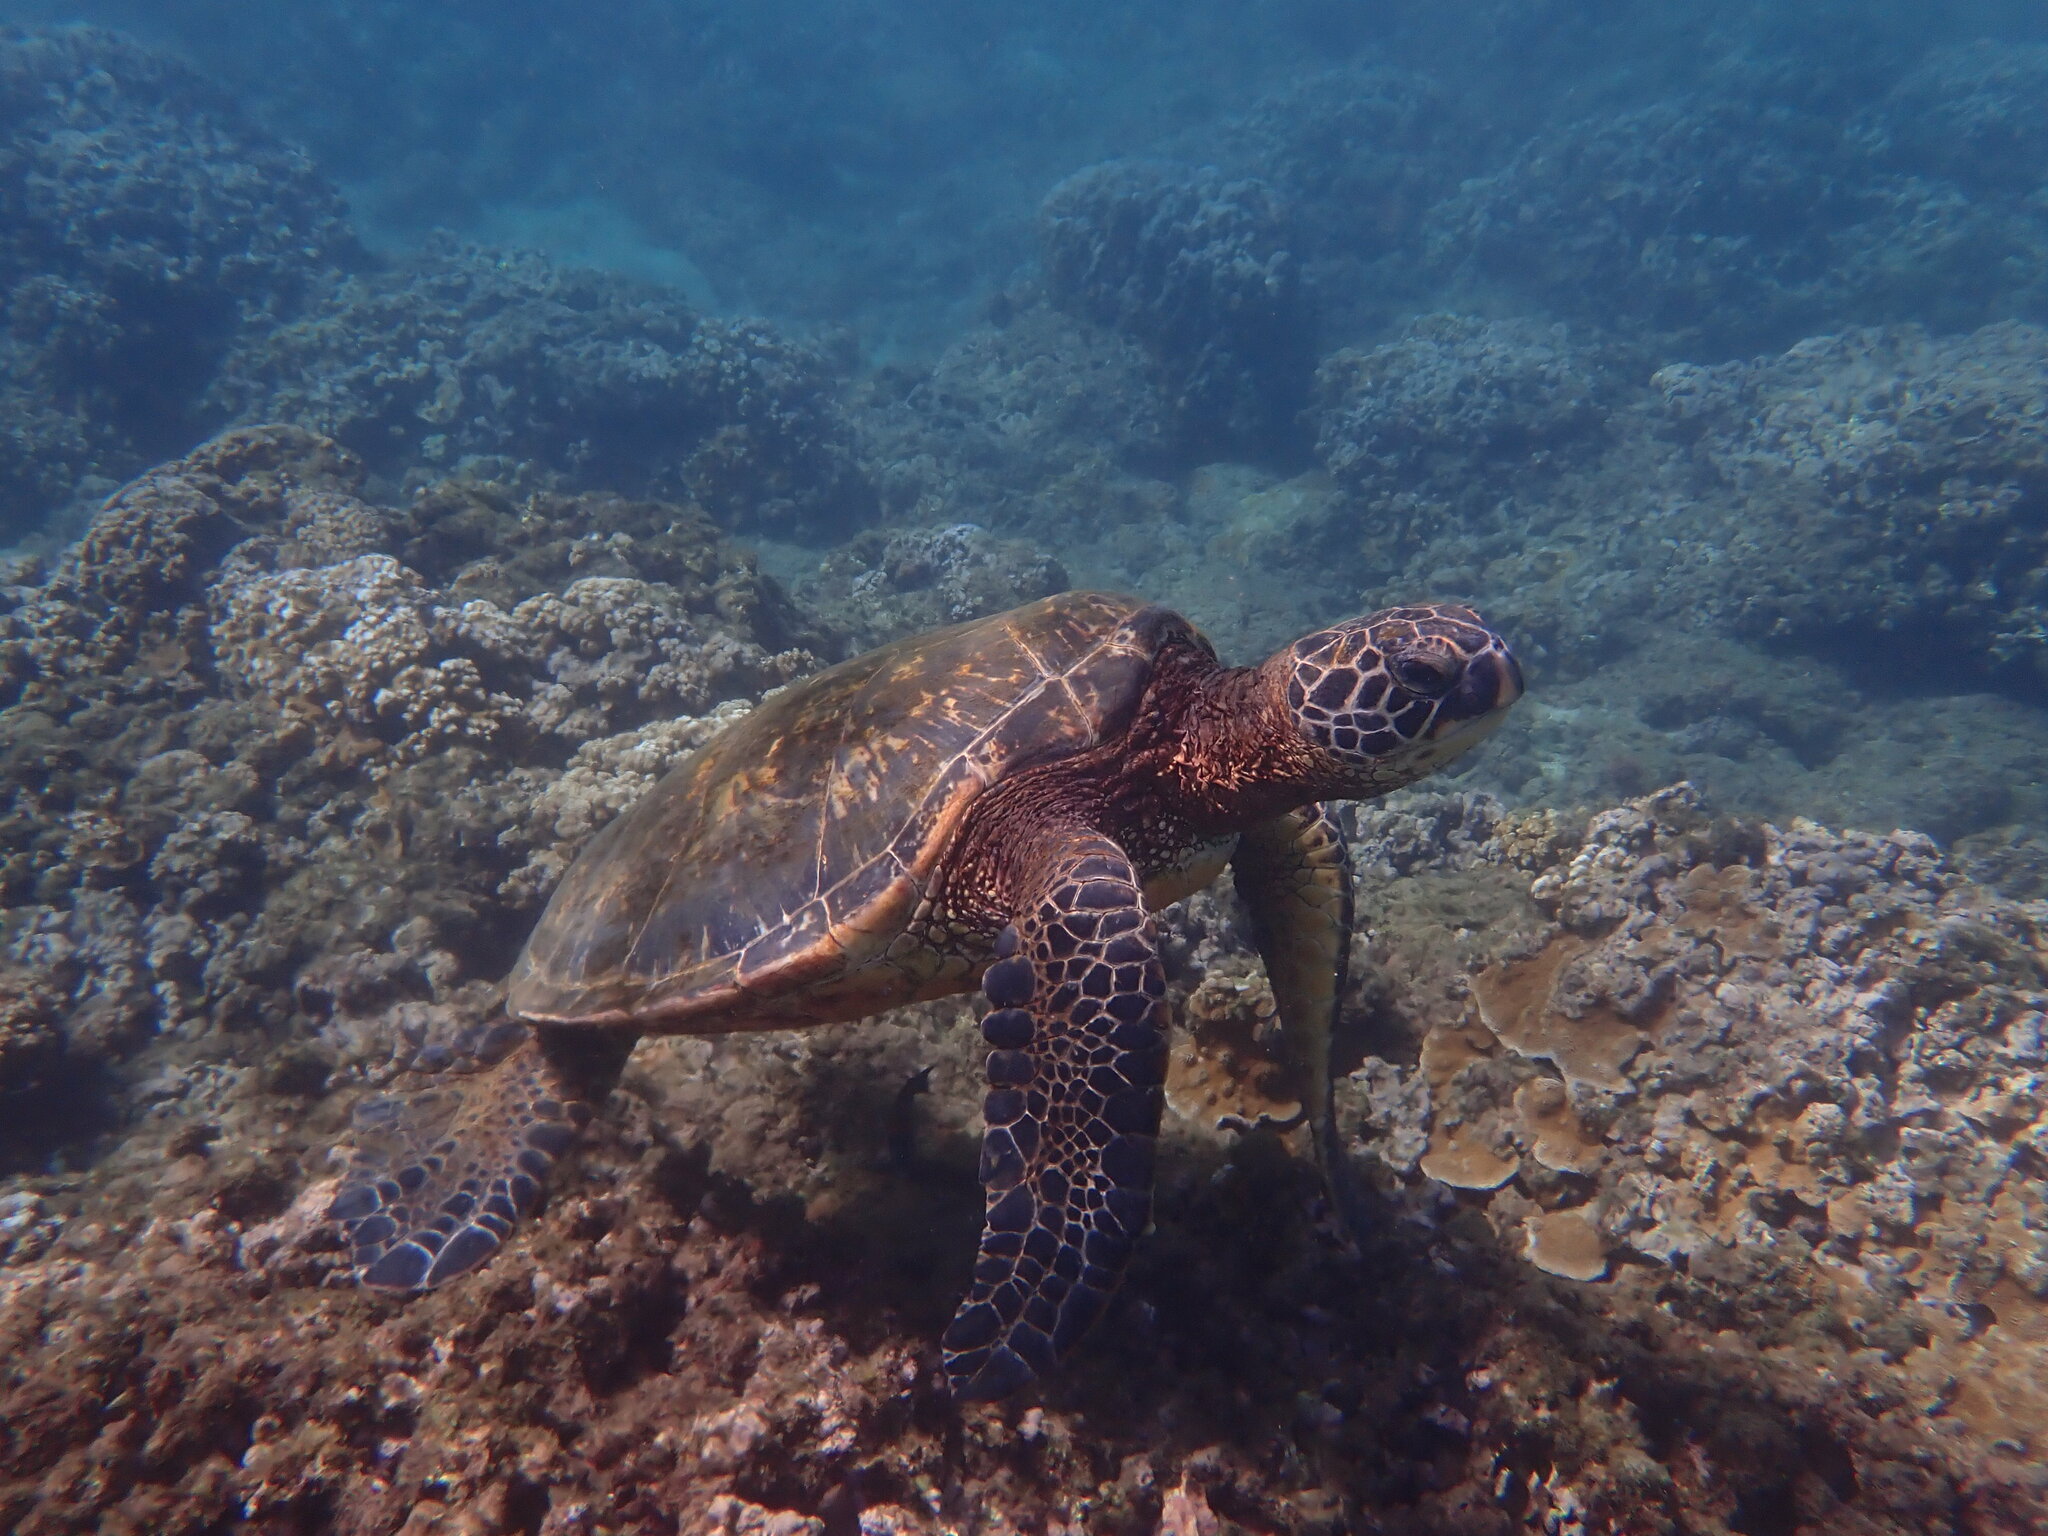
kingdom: Animalia
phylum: Chordata
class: Testudines
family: Cheloniidae
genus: Chelonia
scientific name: Chelonia mydas
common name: Green turtle
